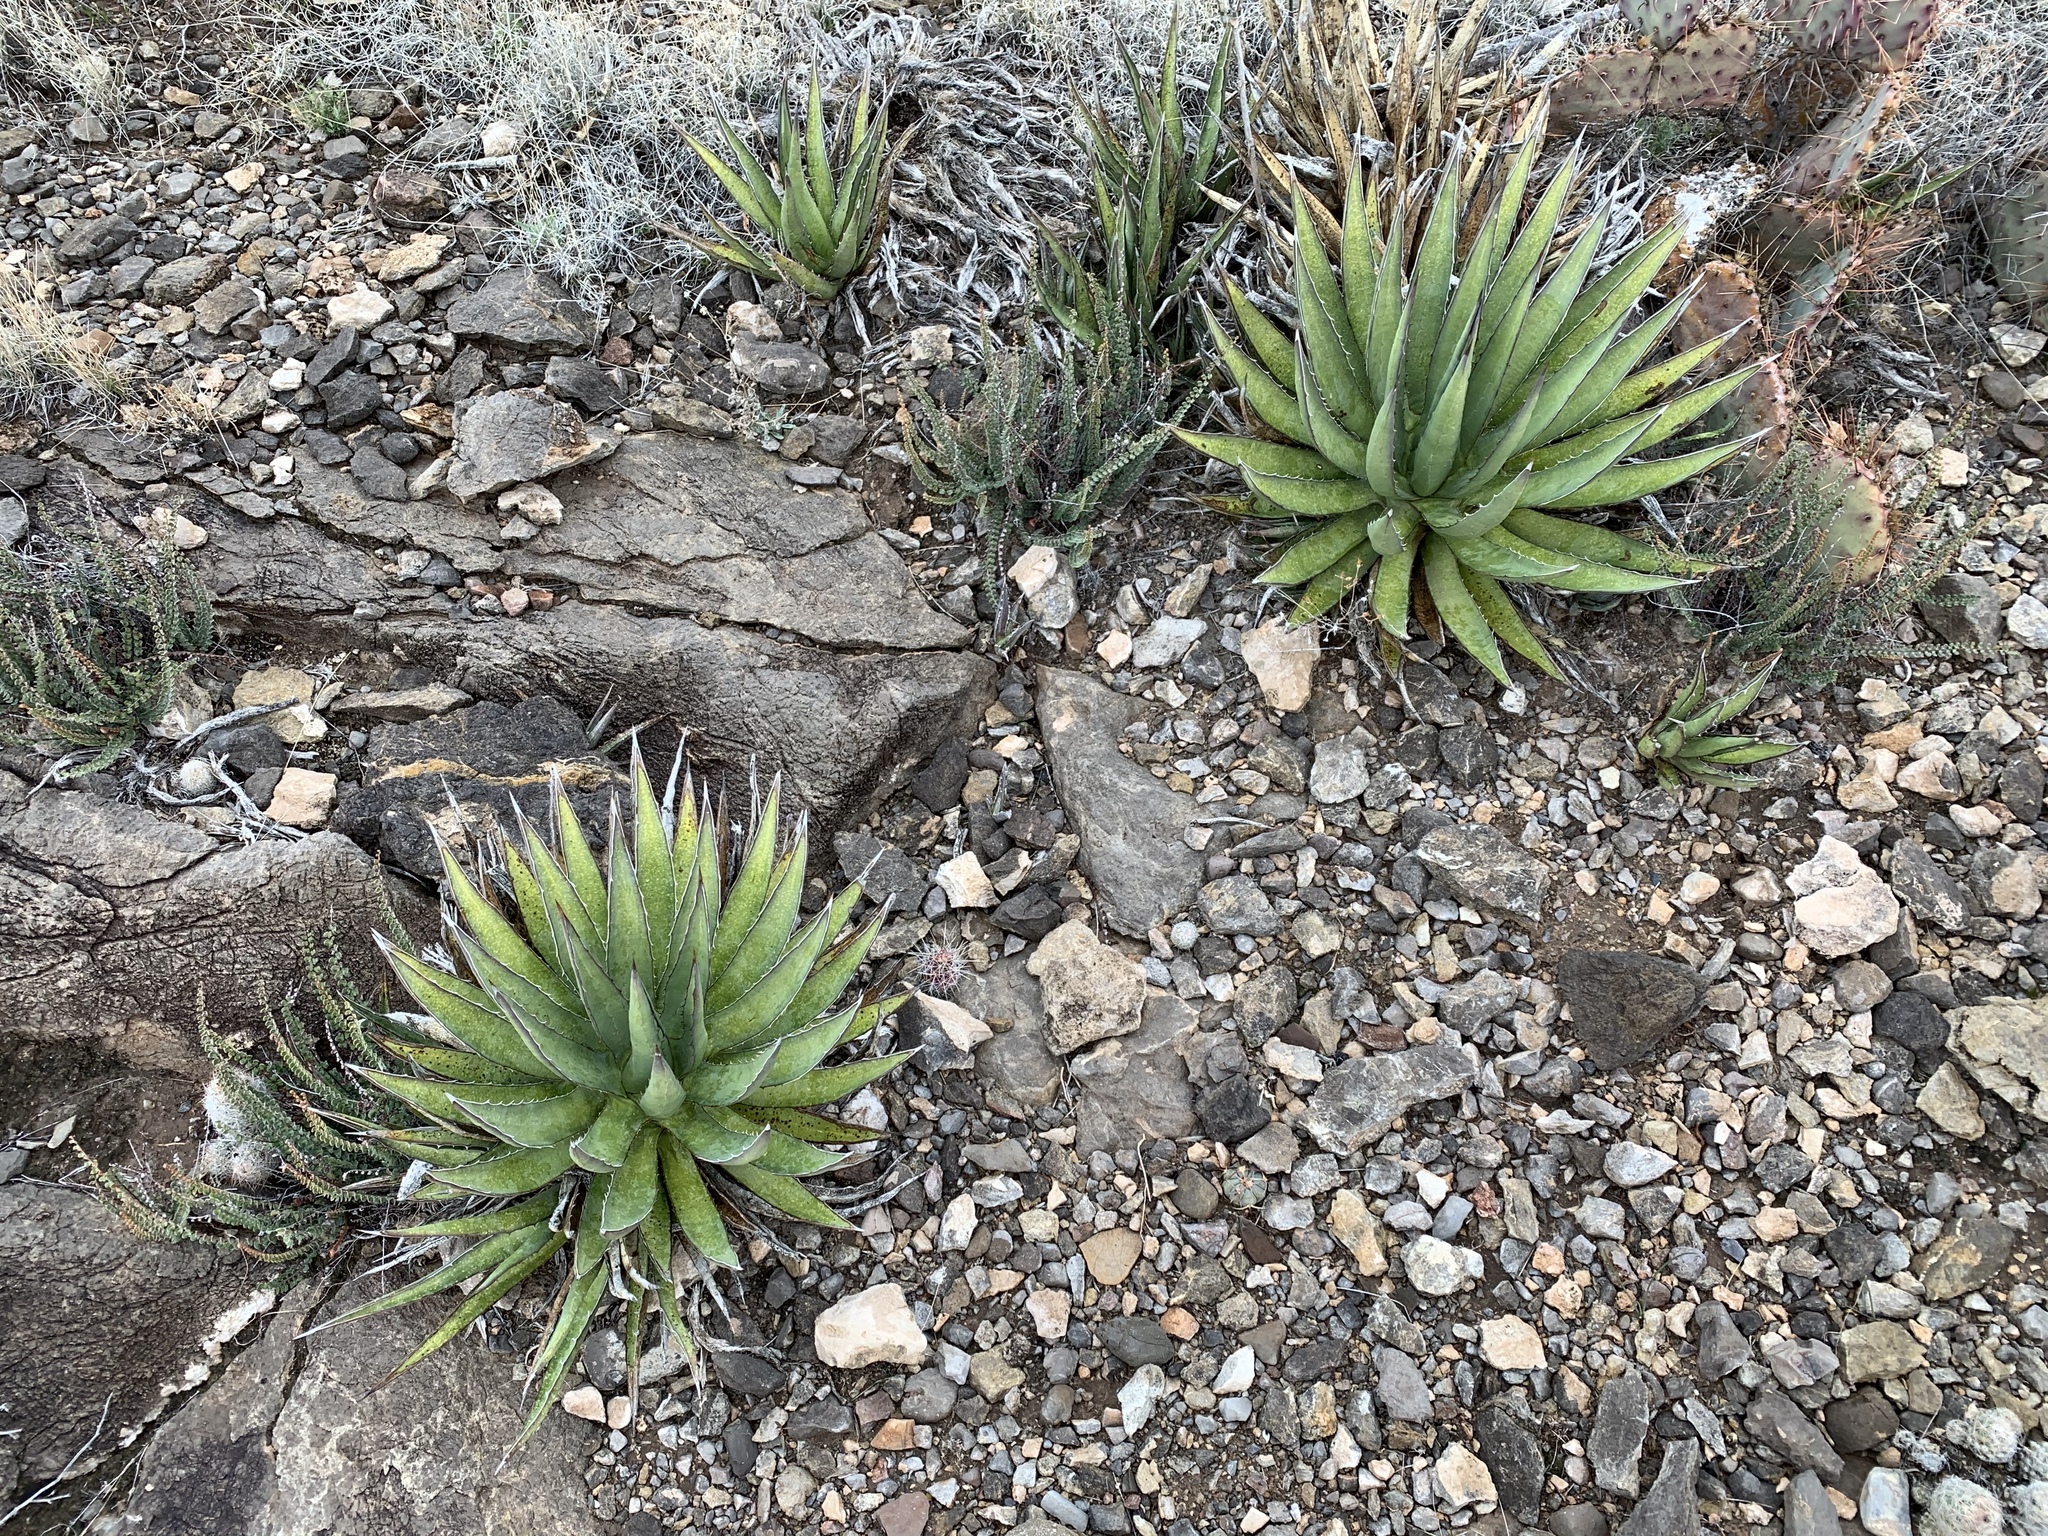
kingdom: Plantae
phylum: Tracheophyta
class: Liliopsida
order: Asparagales
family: Asparagaceae
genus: Agave
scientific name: Agave lechuguilla
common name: Lecheguilla agave
